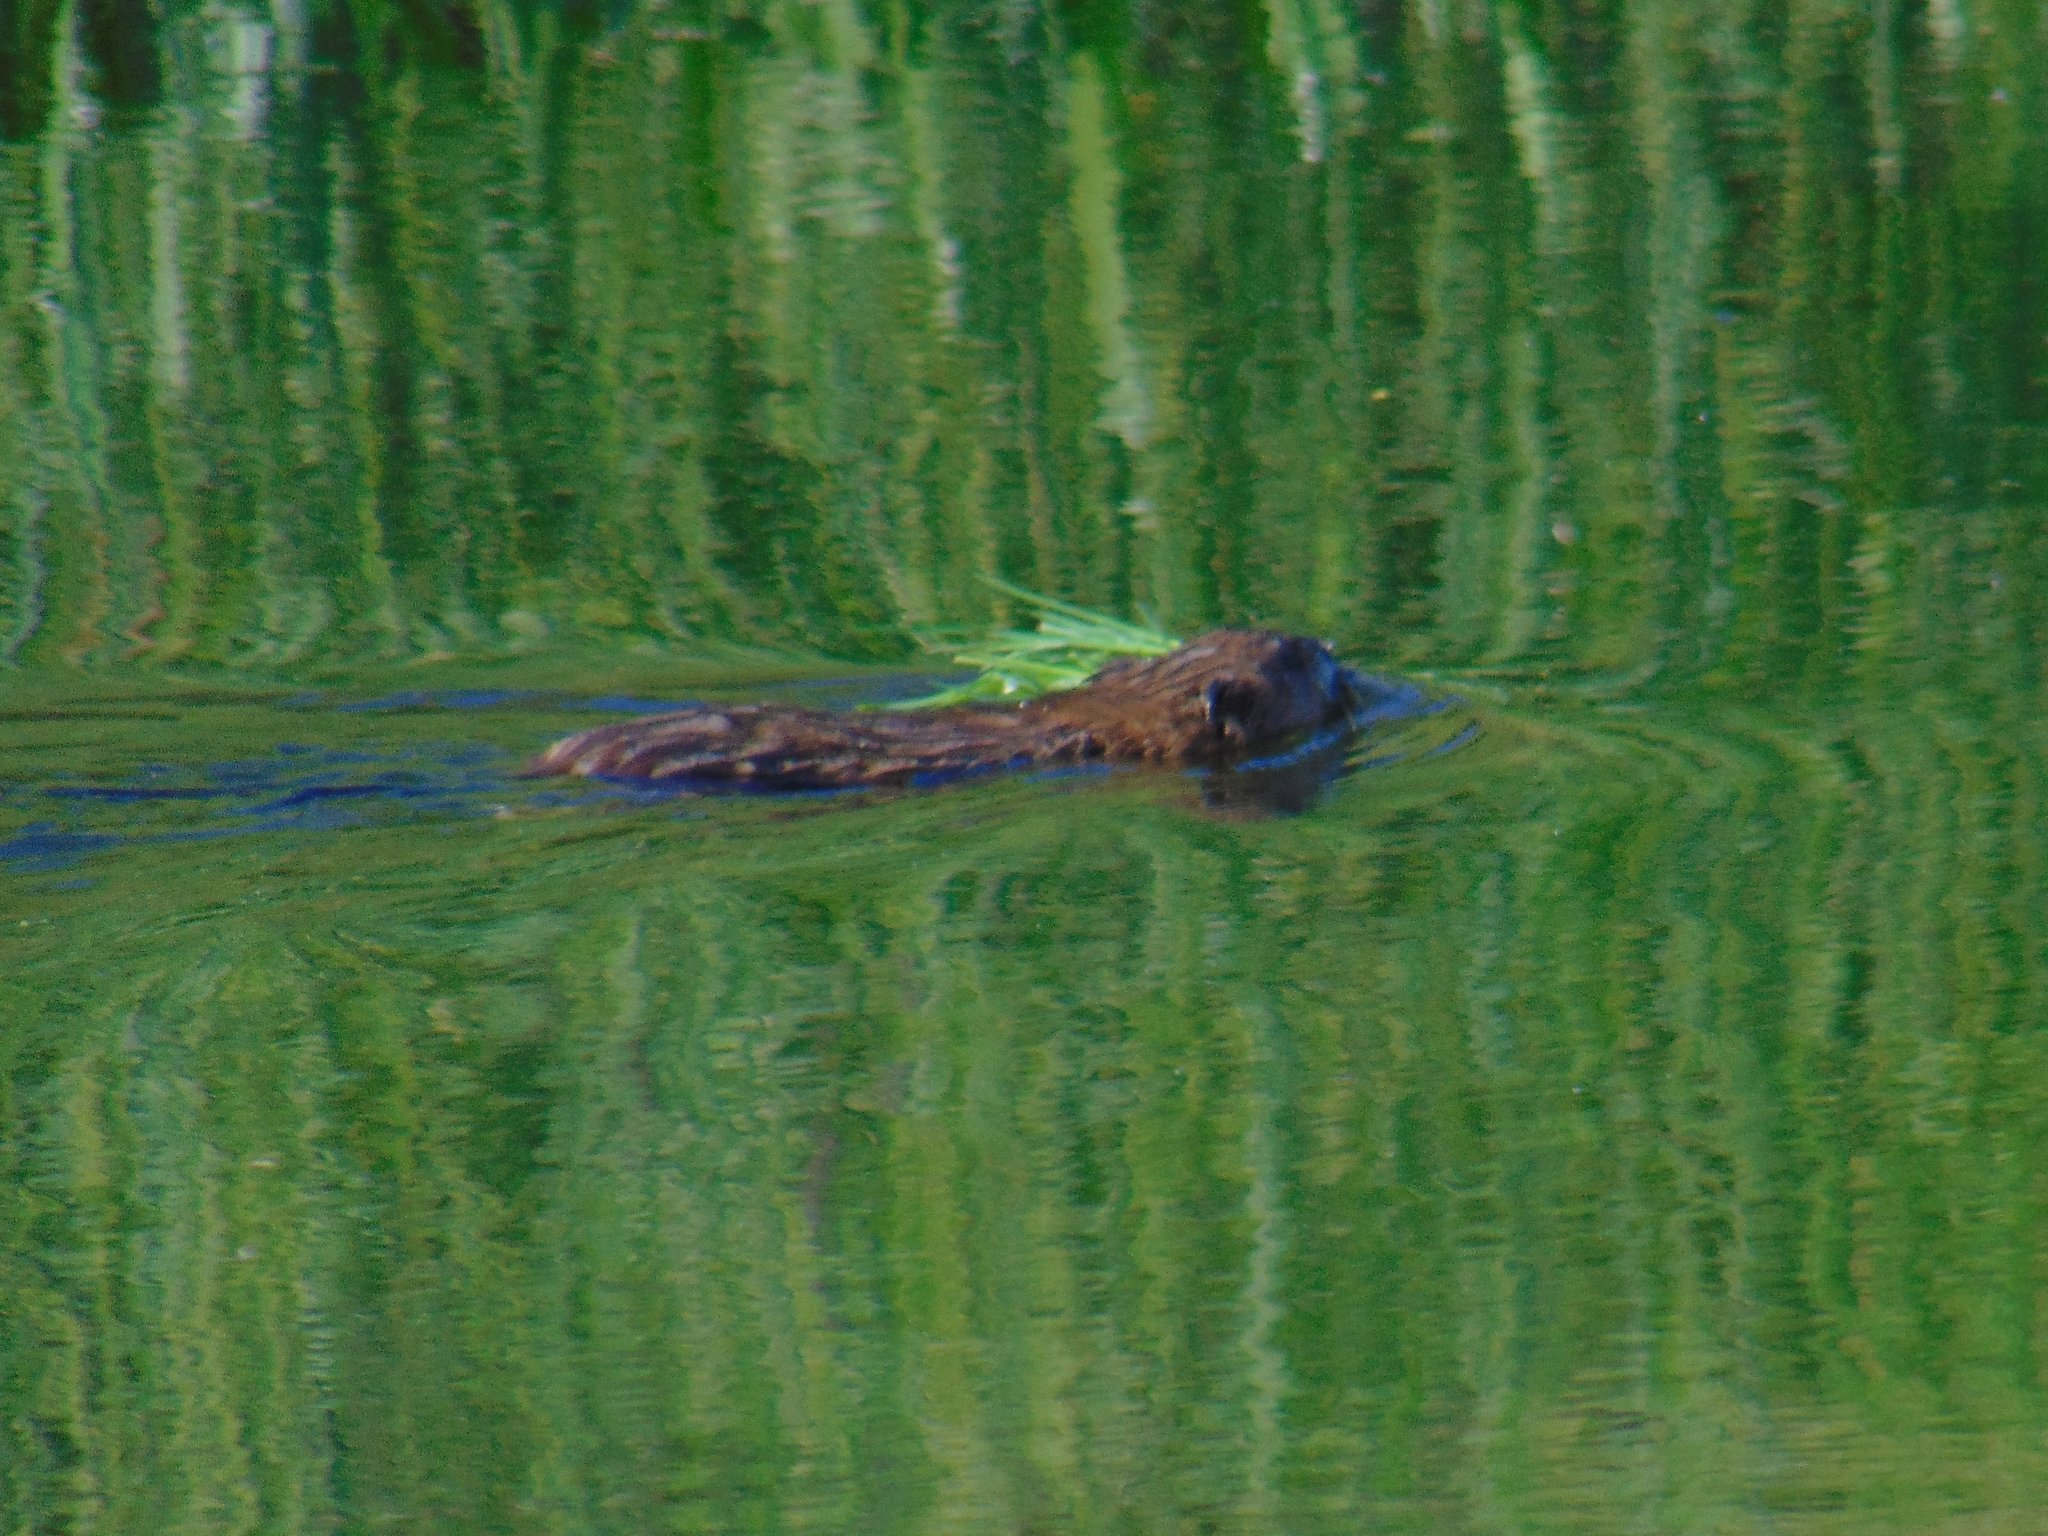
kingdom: Animalia
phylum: Chordata
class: Mammalia
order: Rodentia
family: Cricetidae
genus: Ondatra
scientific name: Ondatra zibethicus
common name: Muskrat
